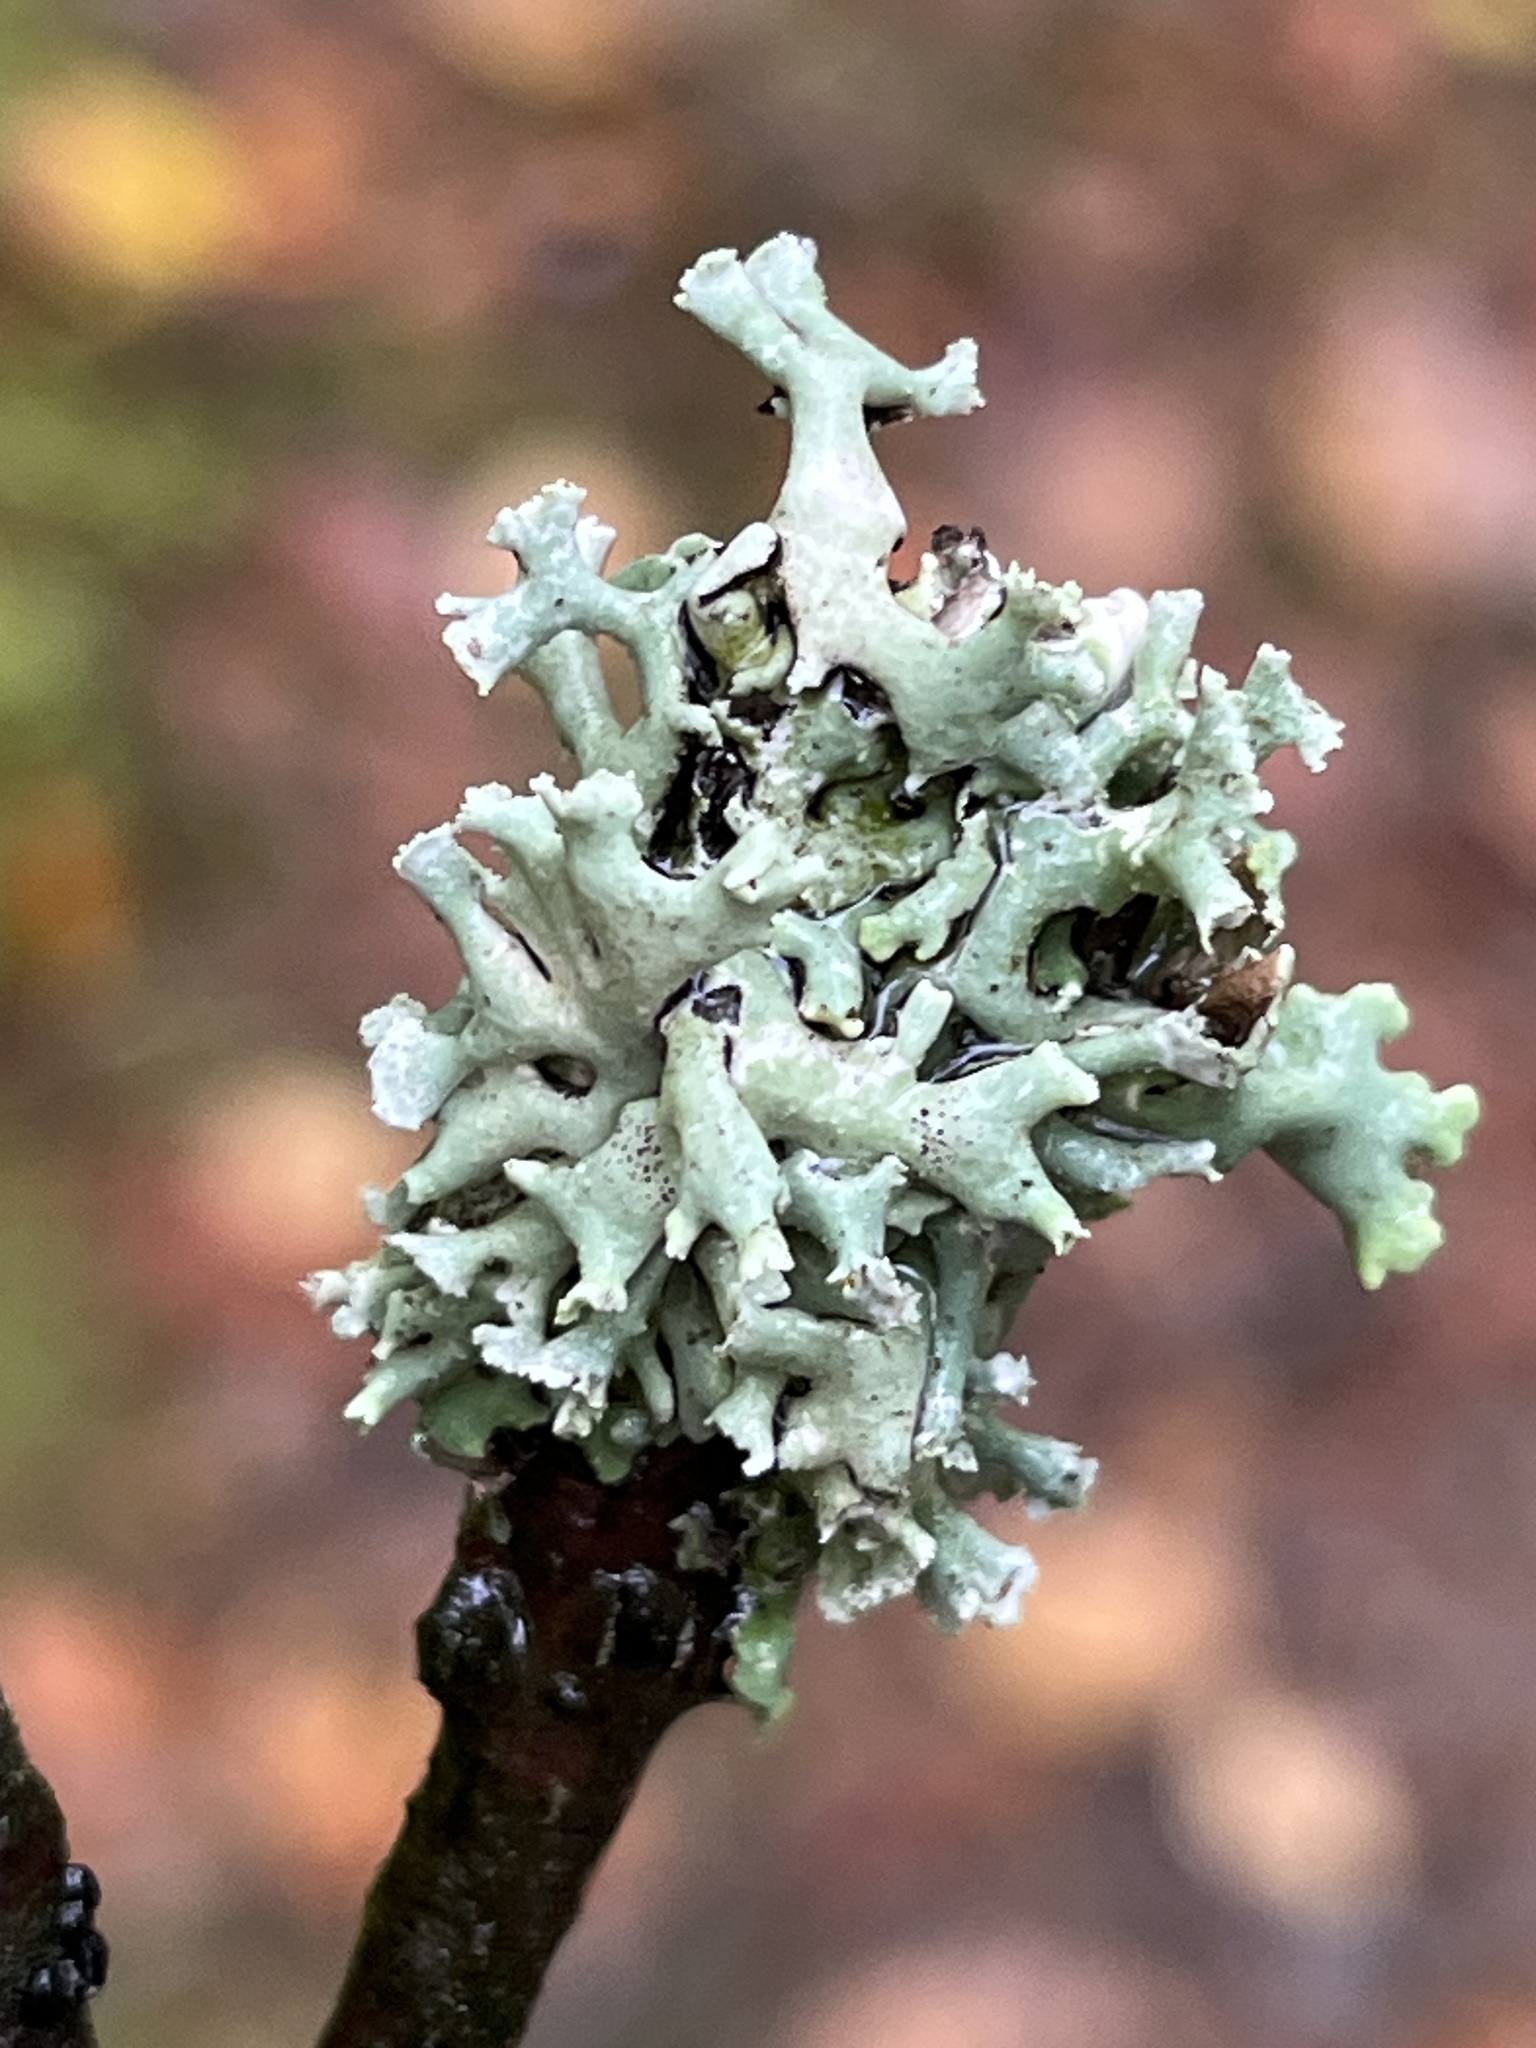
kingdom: Fungi
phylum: Ascomycota
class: Lecanoromycetes
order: Lecanorales
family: Parmeliaceae
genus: Hypogymnia
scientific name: Hypogymnia physodes
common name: Dark crottle
